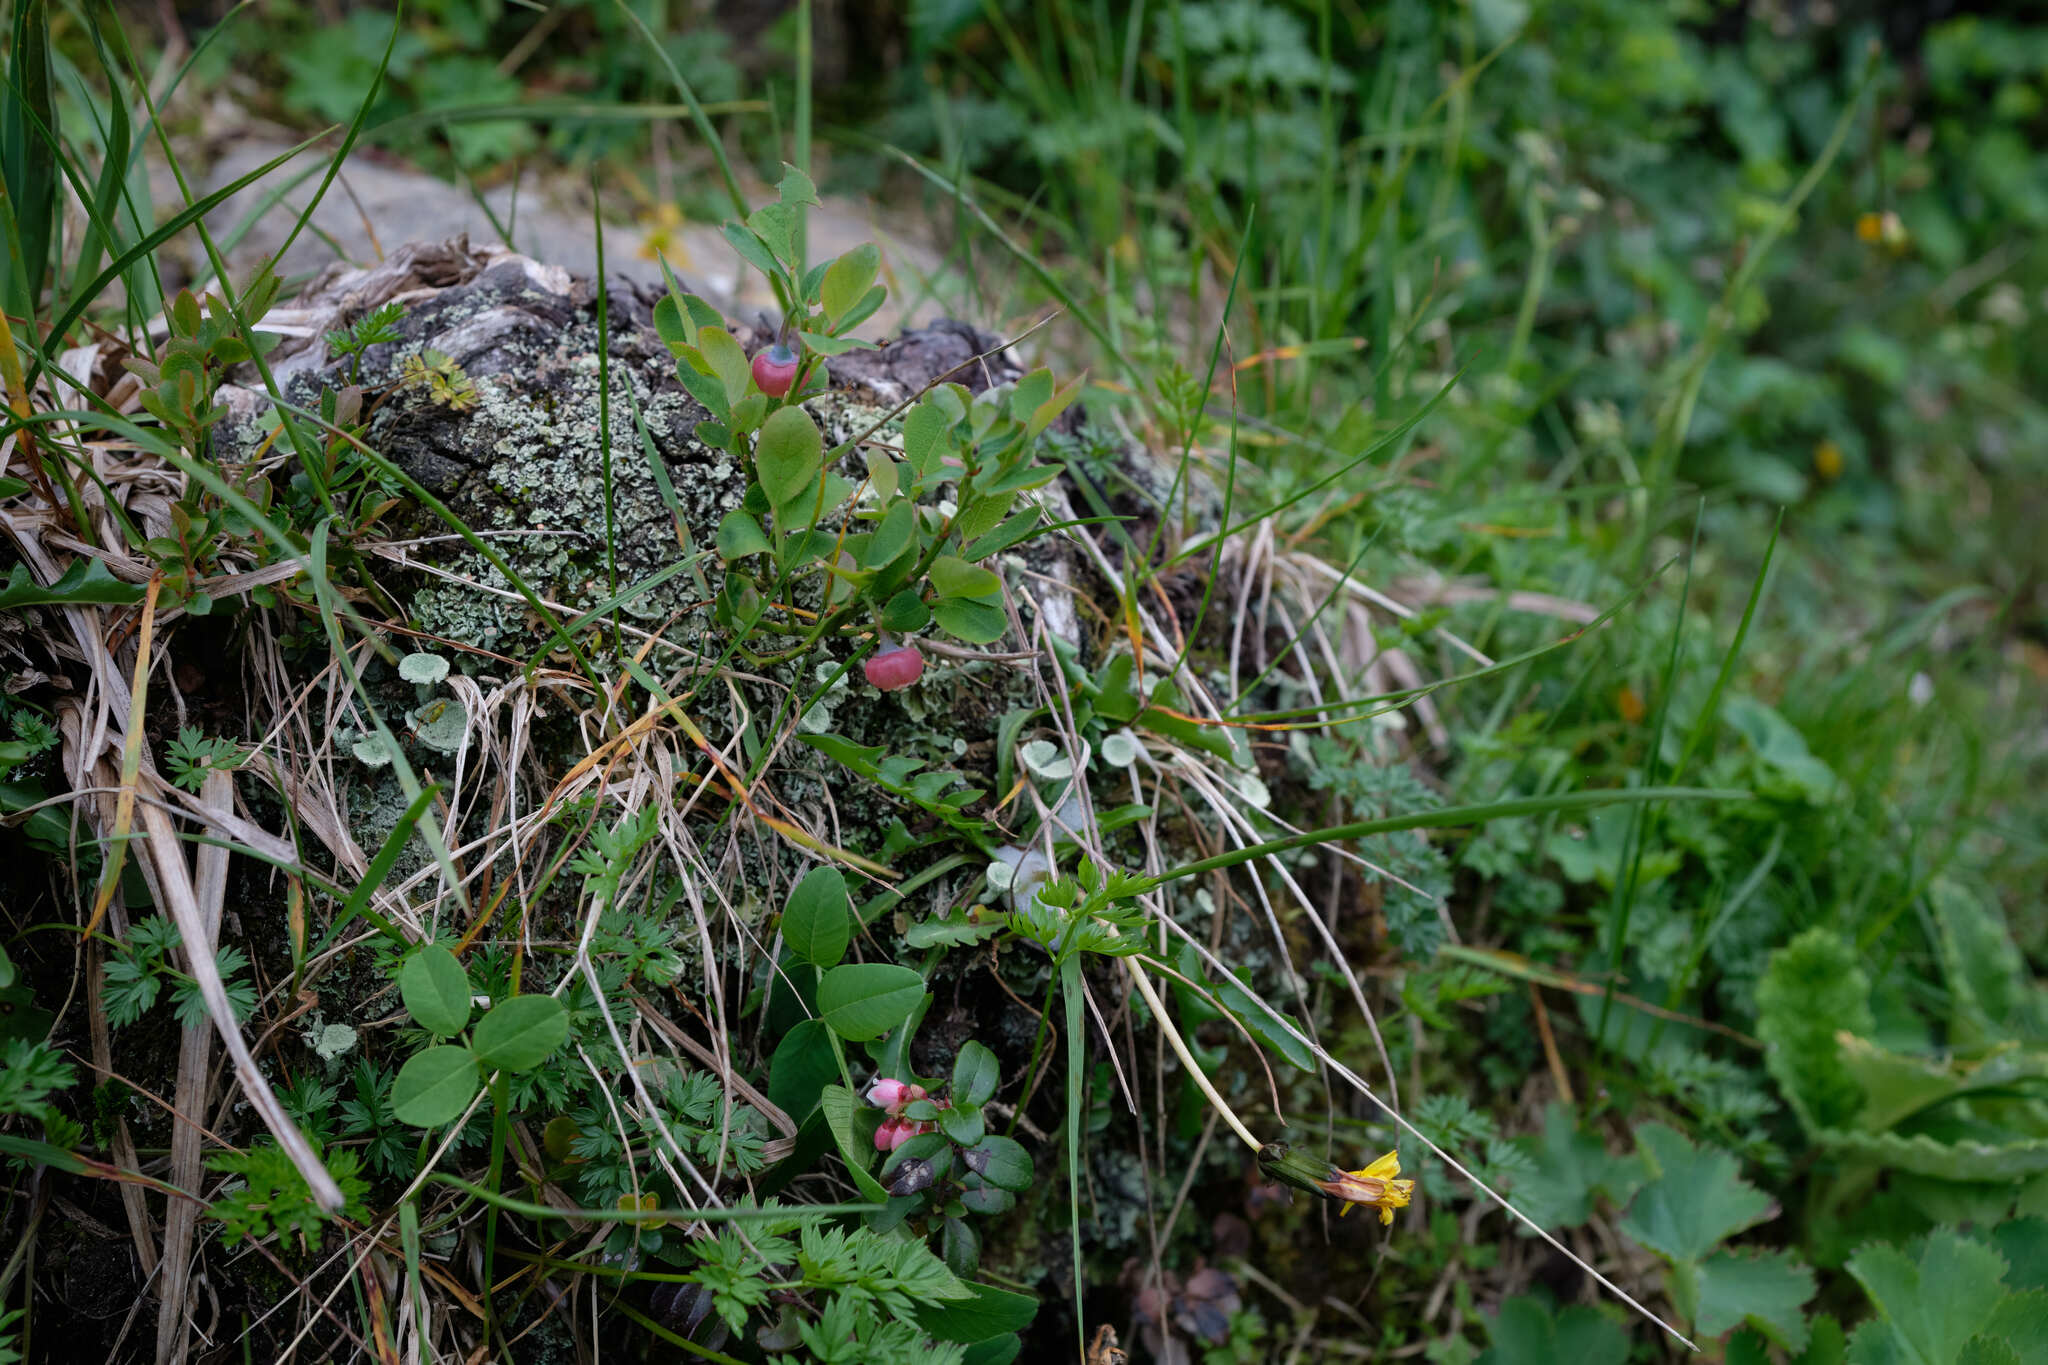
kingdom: Plantae
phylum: Tracheophyta
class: Magnoliopsida
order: Ericales
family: Ericaceae
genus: Vaccinium
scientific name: Vaccinium myrtillus
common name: Bilberry
